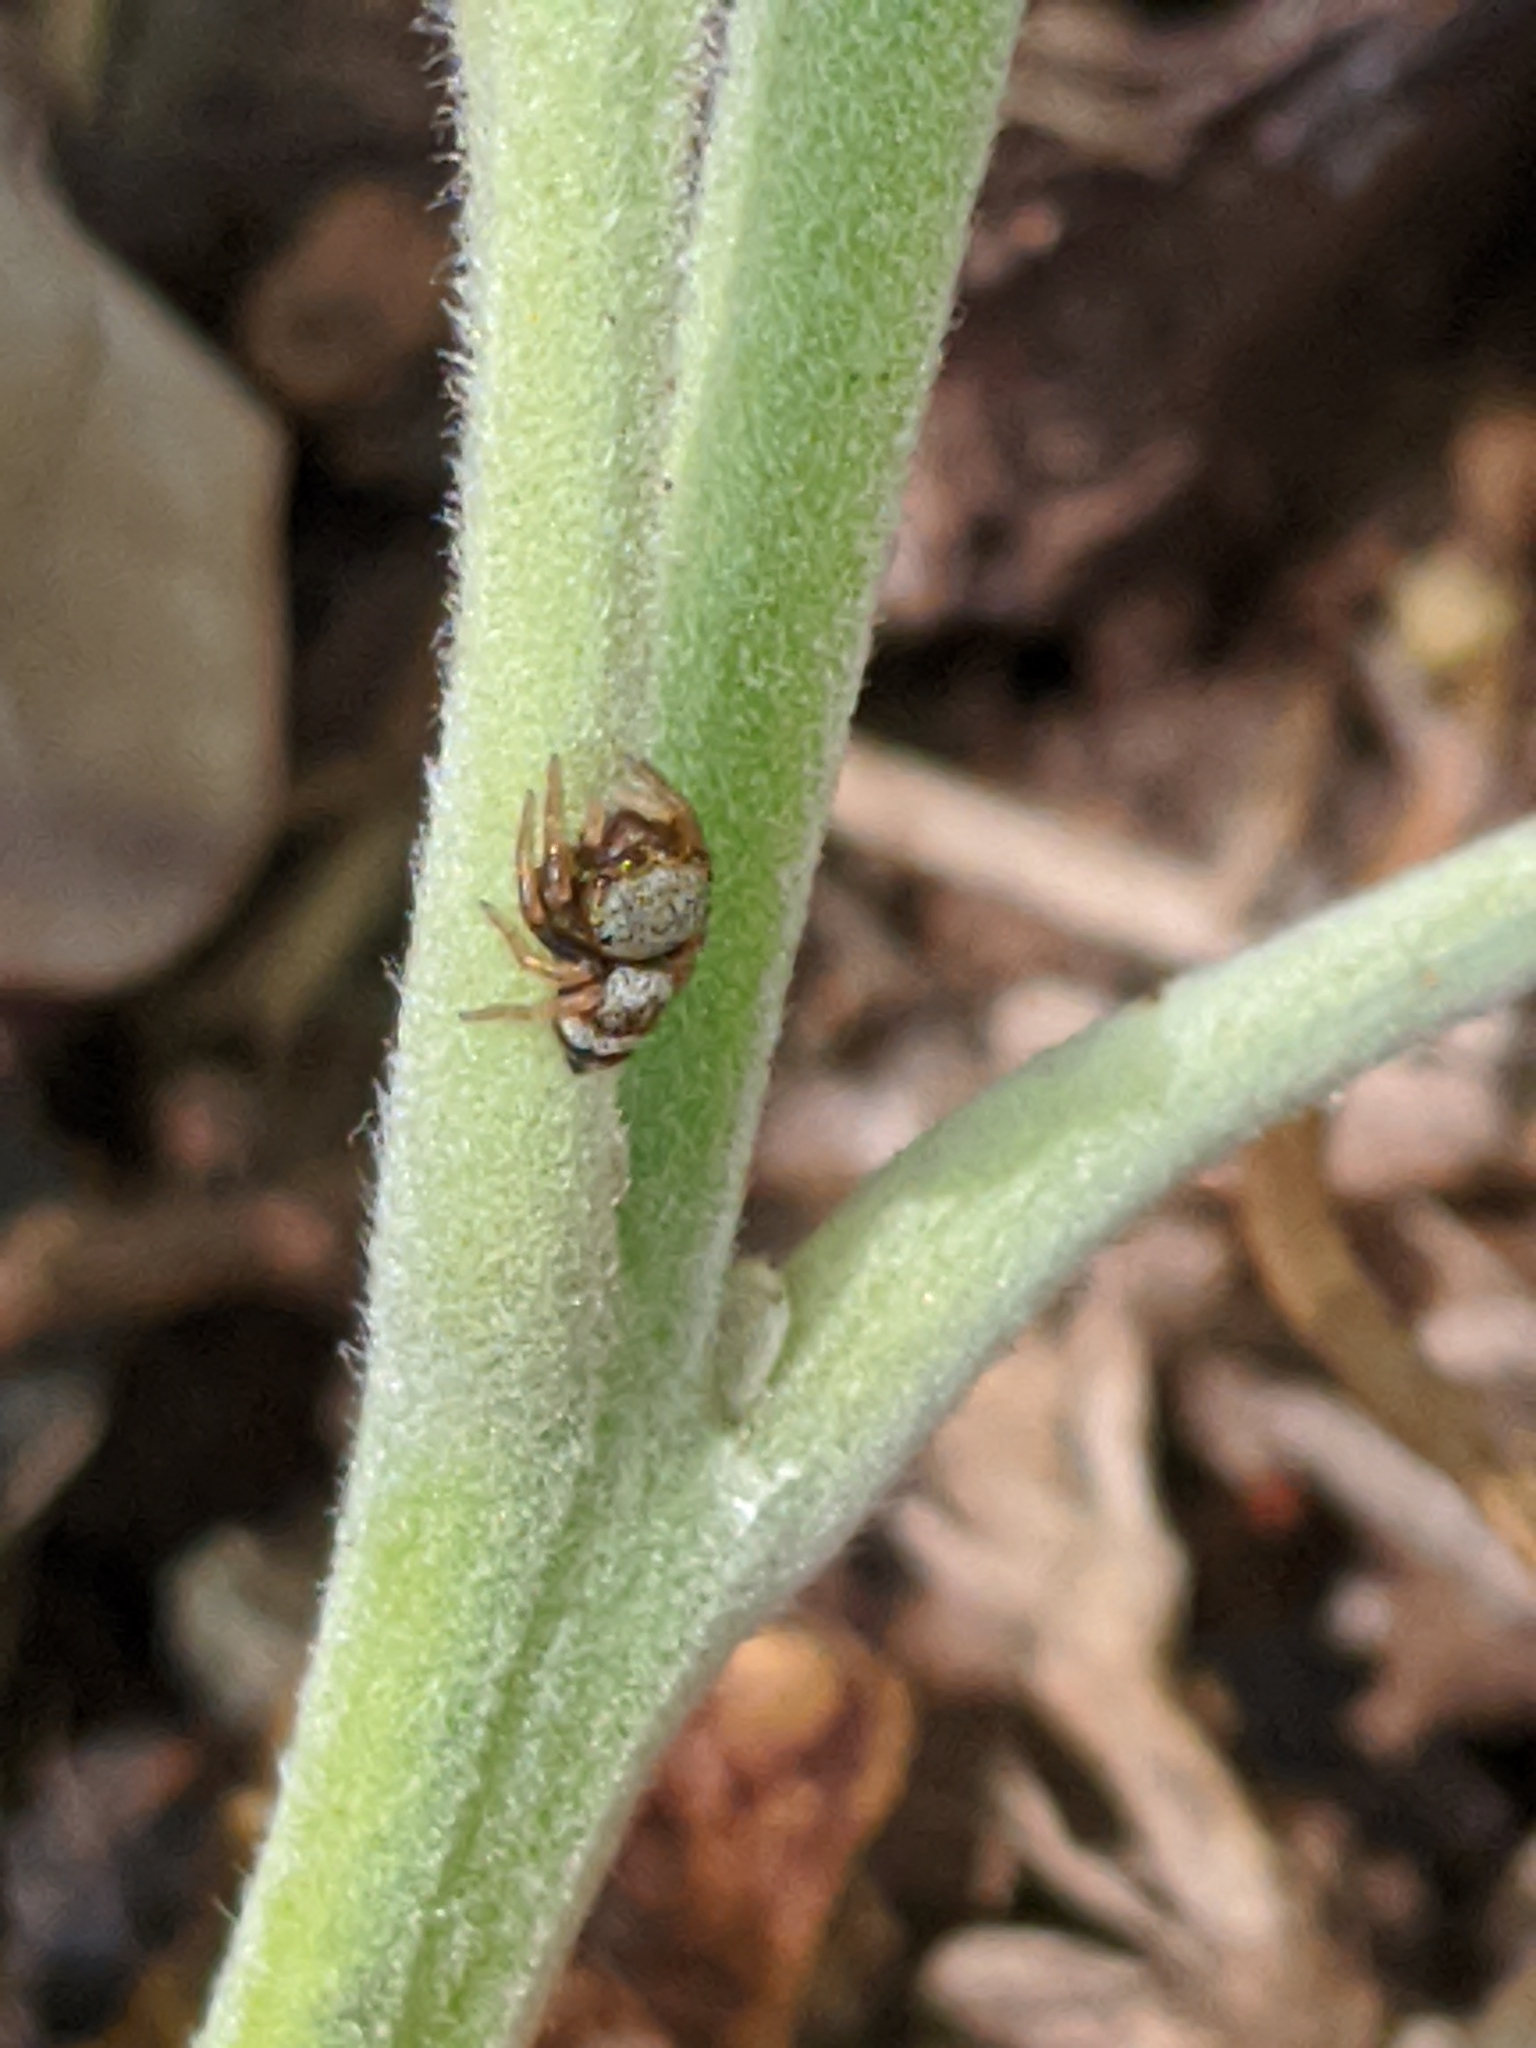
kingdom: Animalia
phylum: Arthropoda
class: Arachnida
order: Araneae
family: Salticidae
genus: Euryattus
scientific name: Euryattus bleekeri
